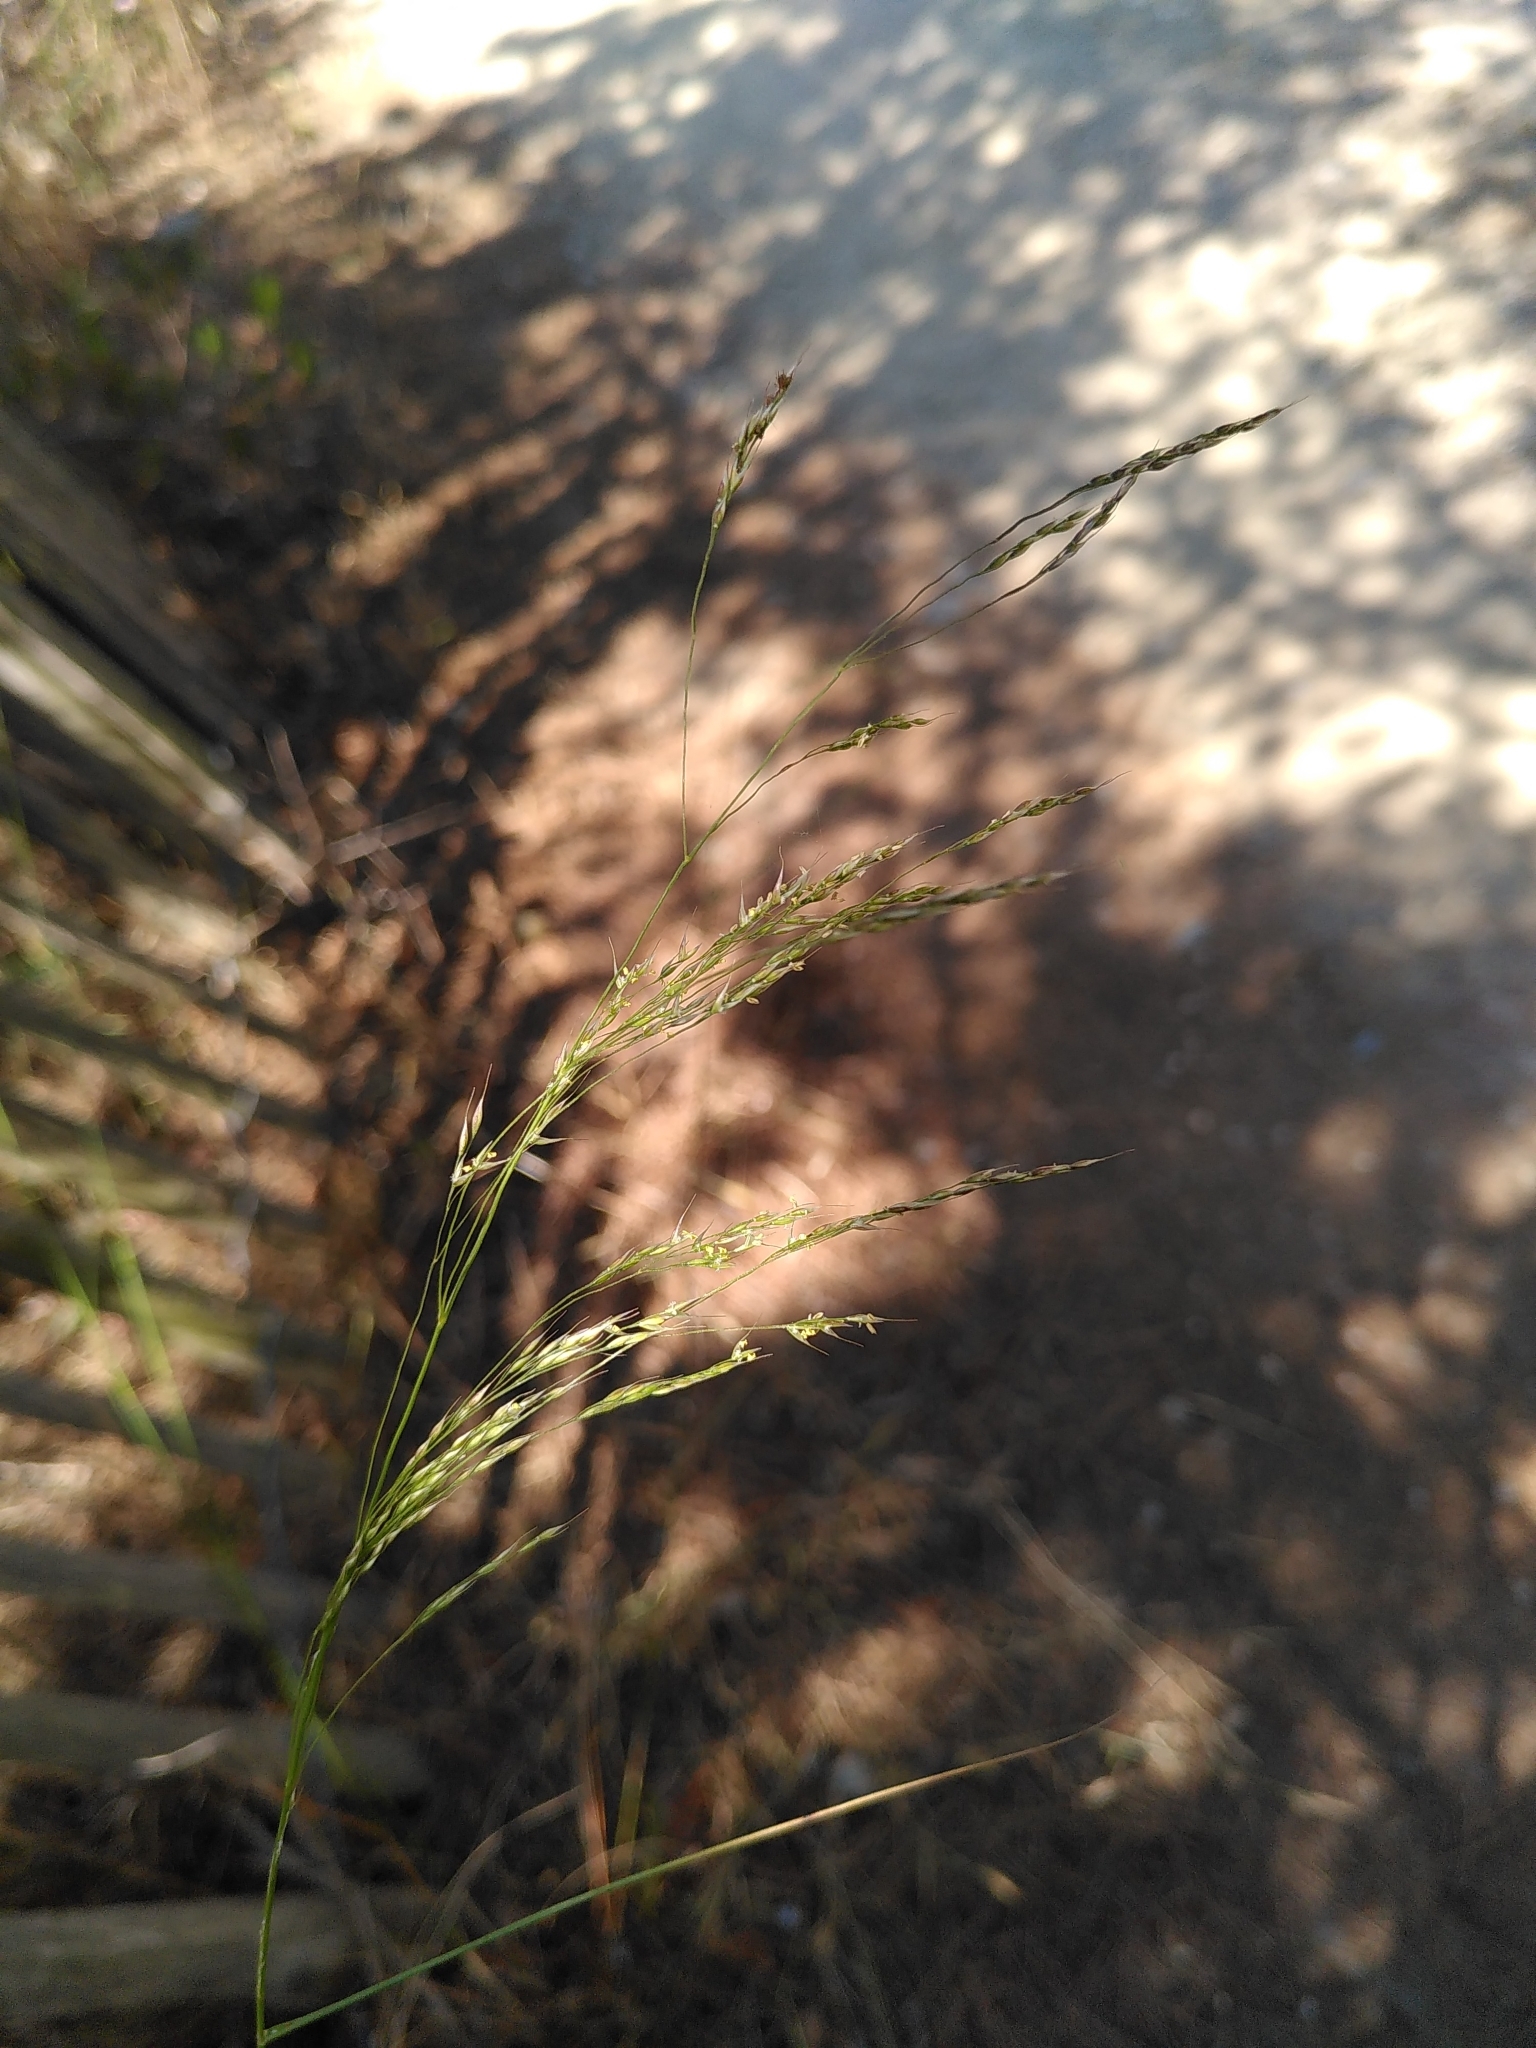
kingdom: Plantae
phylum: Tracheophyta
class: Liliopsida
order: Poales
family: Poaceae
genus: Oloptum
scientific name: Oloptum miliaceum
